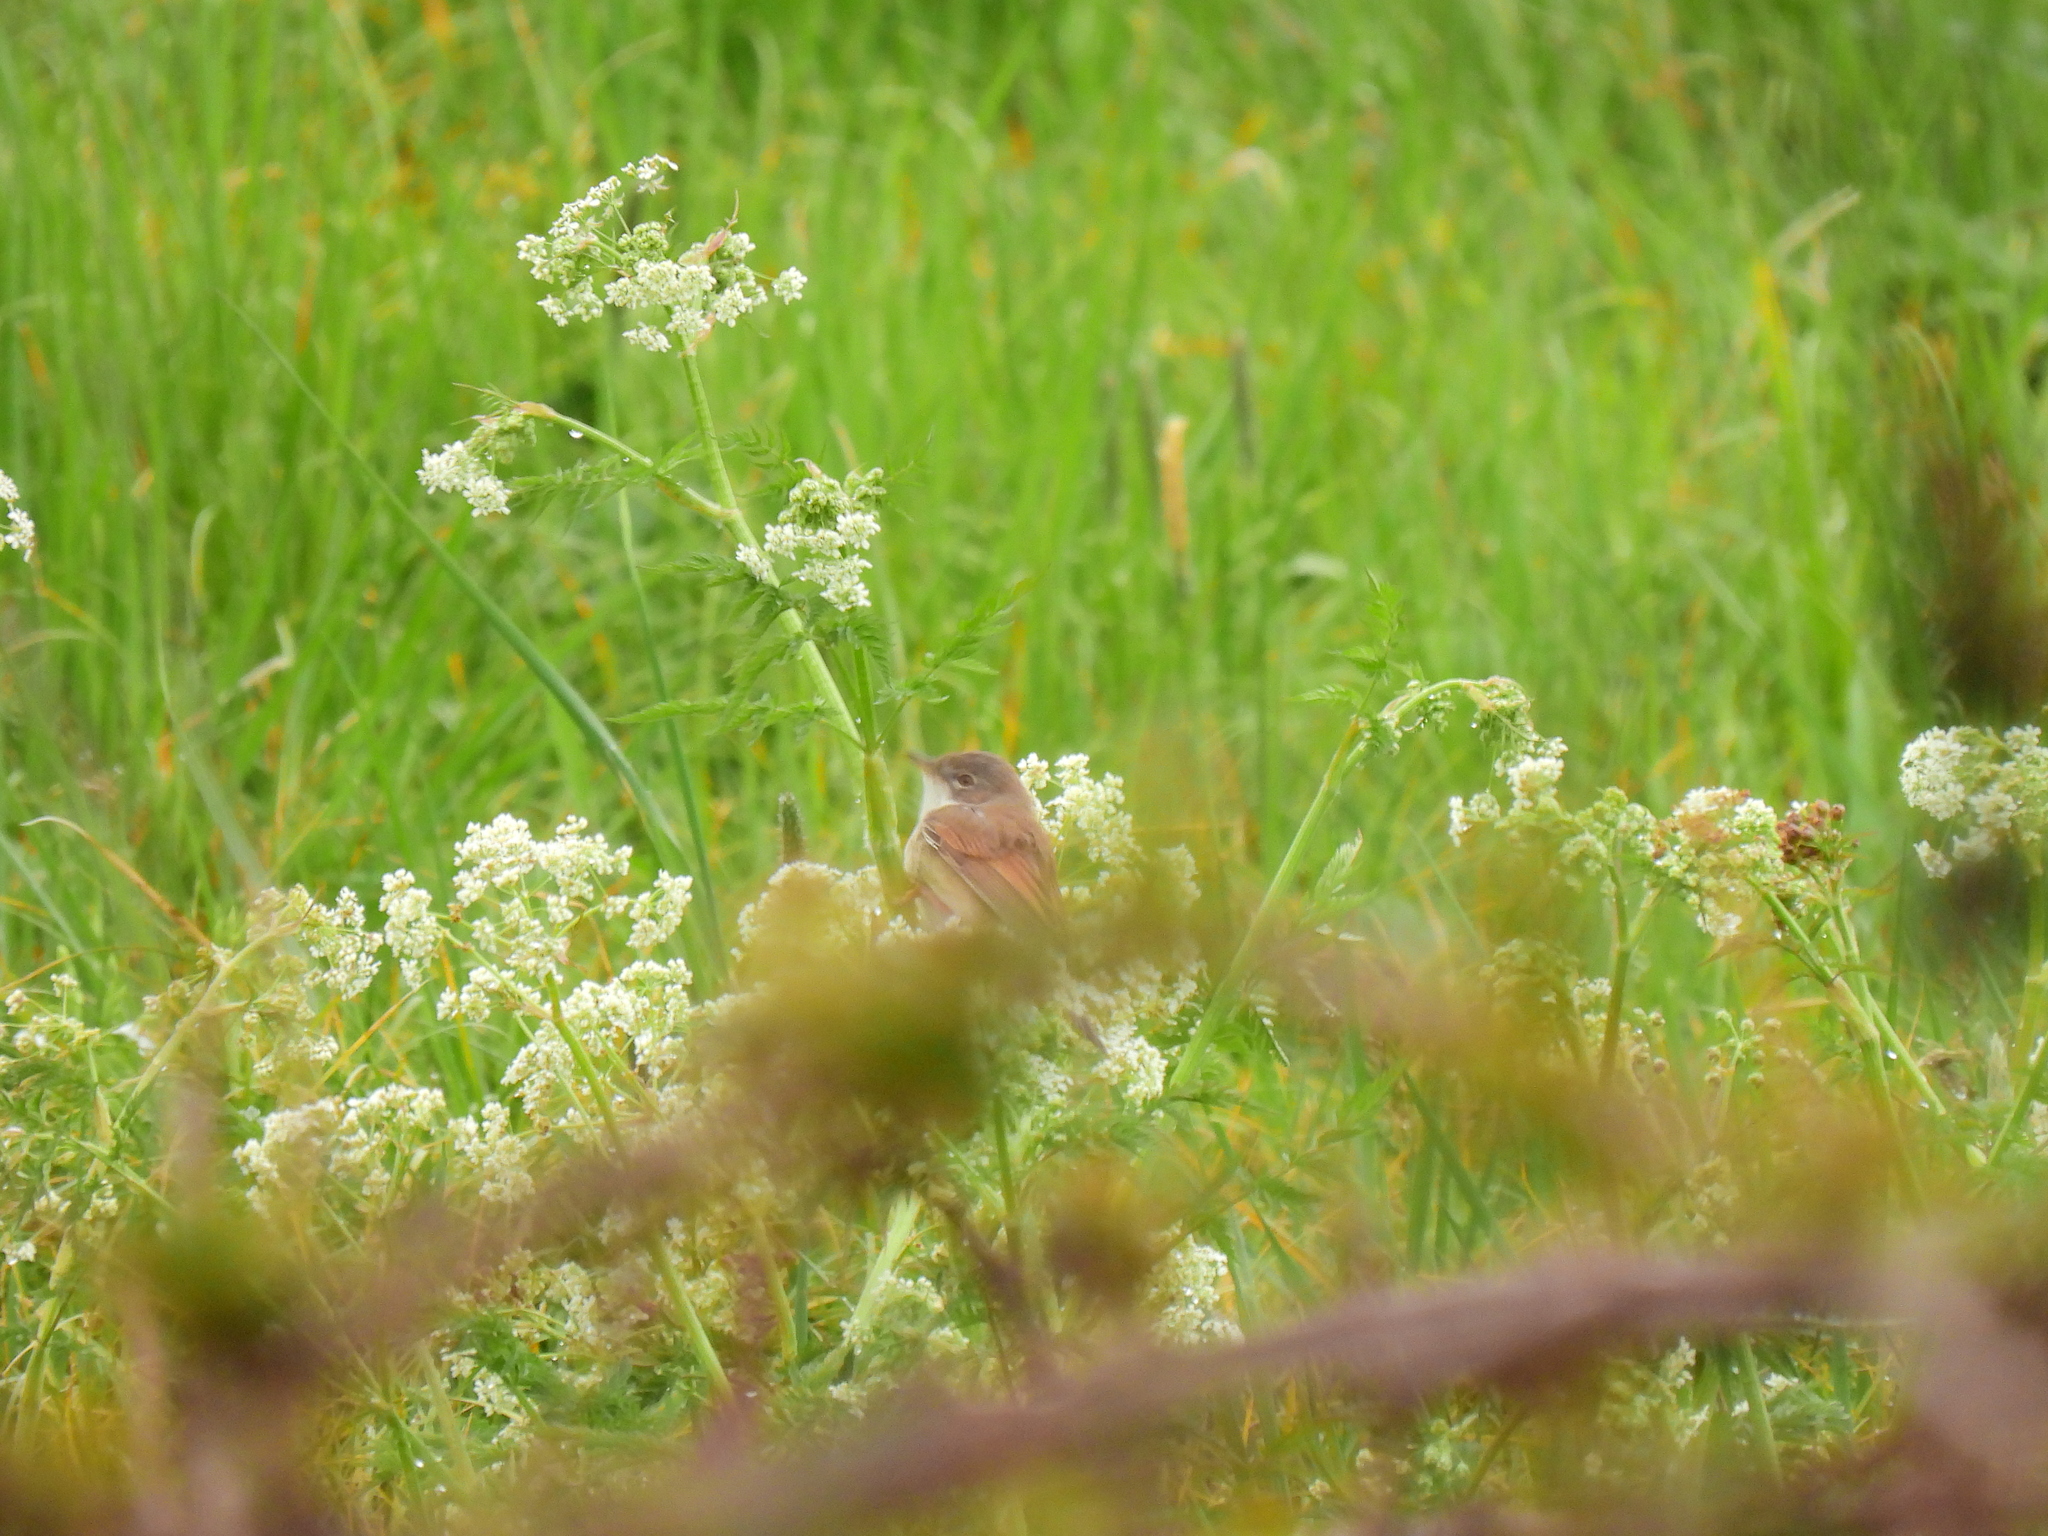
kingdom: Animalia
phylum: Chordata
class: Aves
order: Passeriformes
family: Sylviidae
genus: Sylvia
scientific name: Sylvia communis
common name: Common whitethroat
